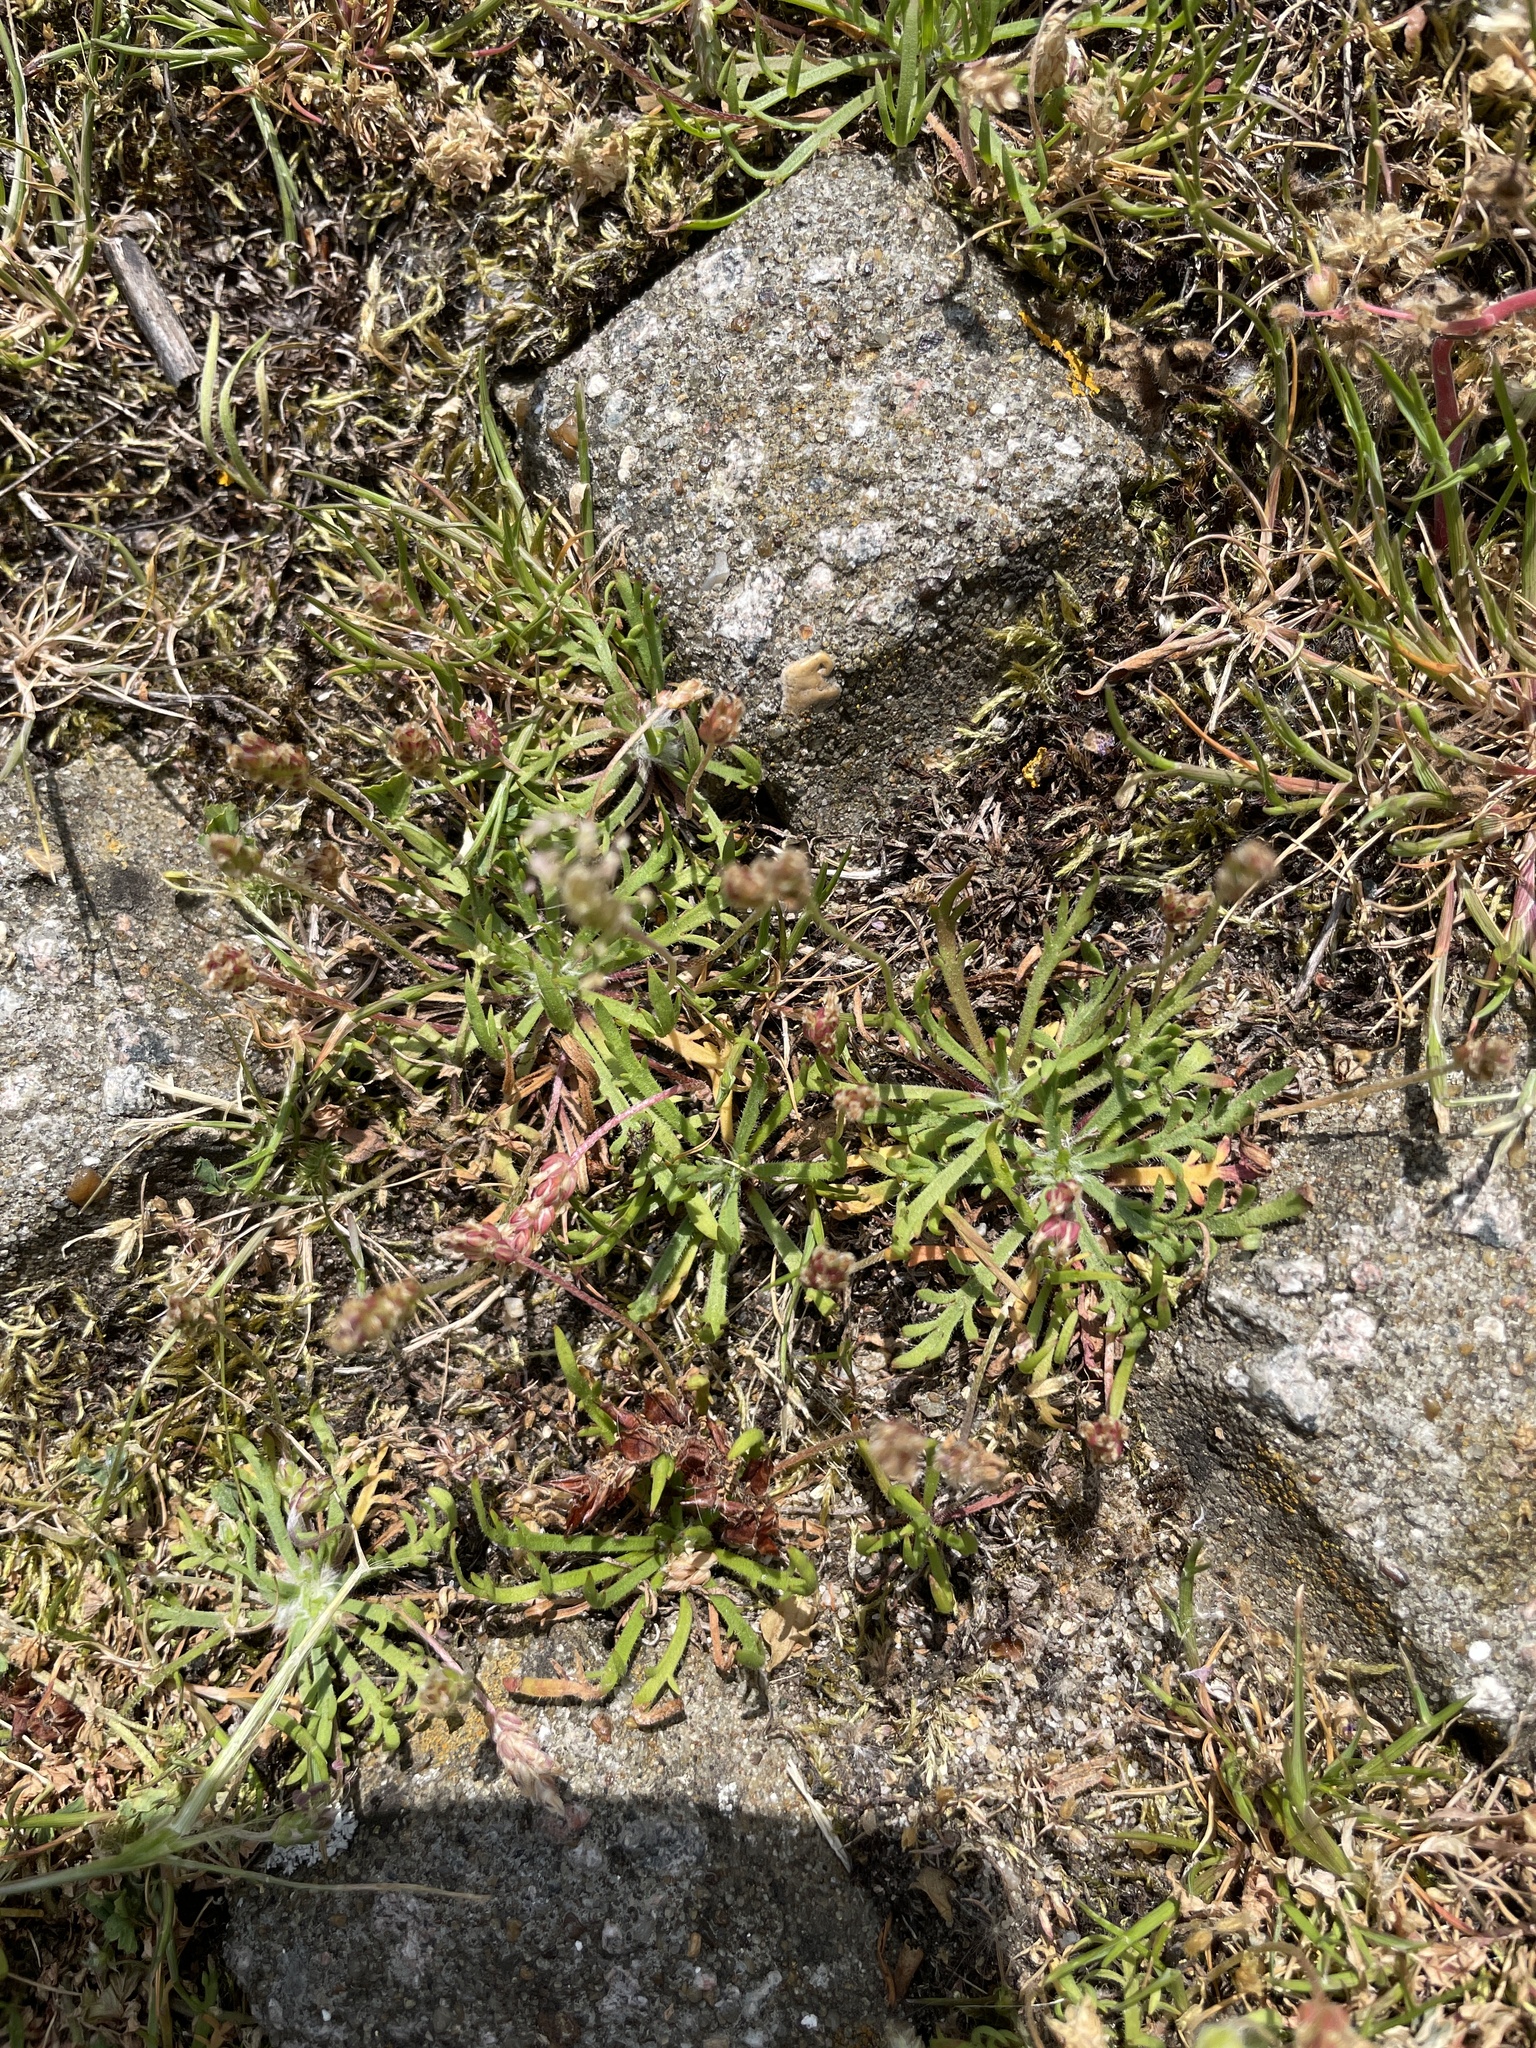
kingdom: Plantae
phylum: Tracheophyta
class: Magnoliopsida
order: Lamiales
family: Plantaginaceae
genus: Plantago
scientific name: Plantago coronopus
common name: Buck's-horn plantain
